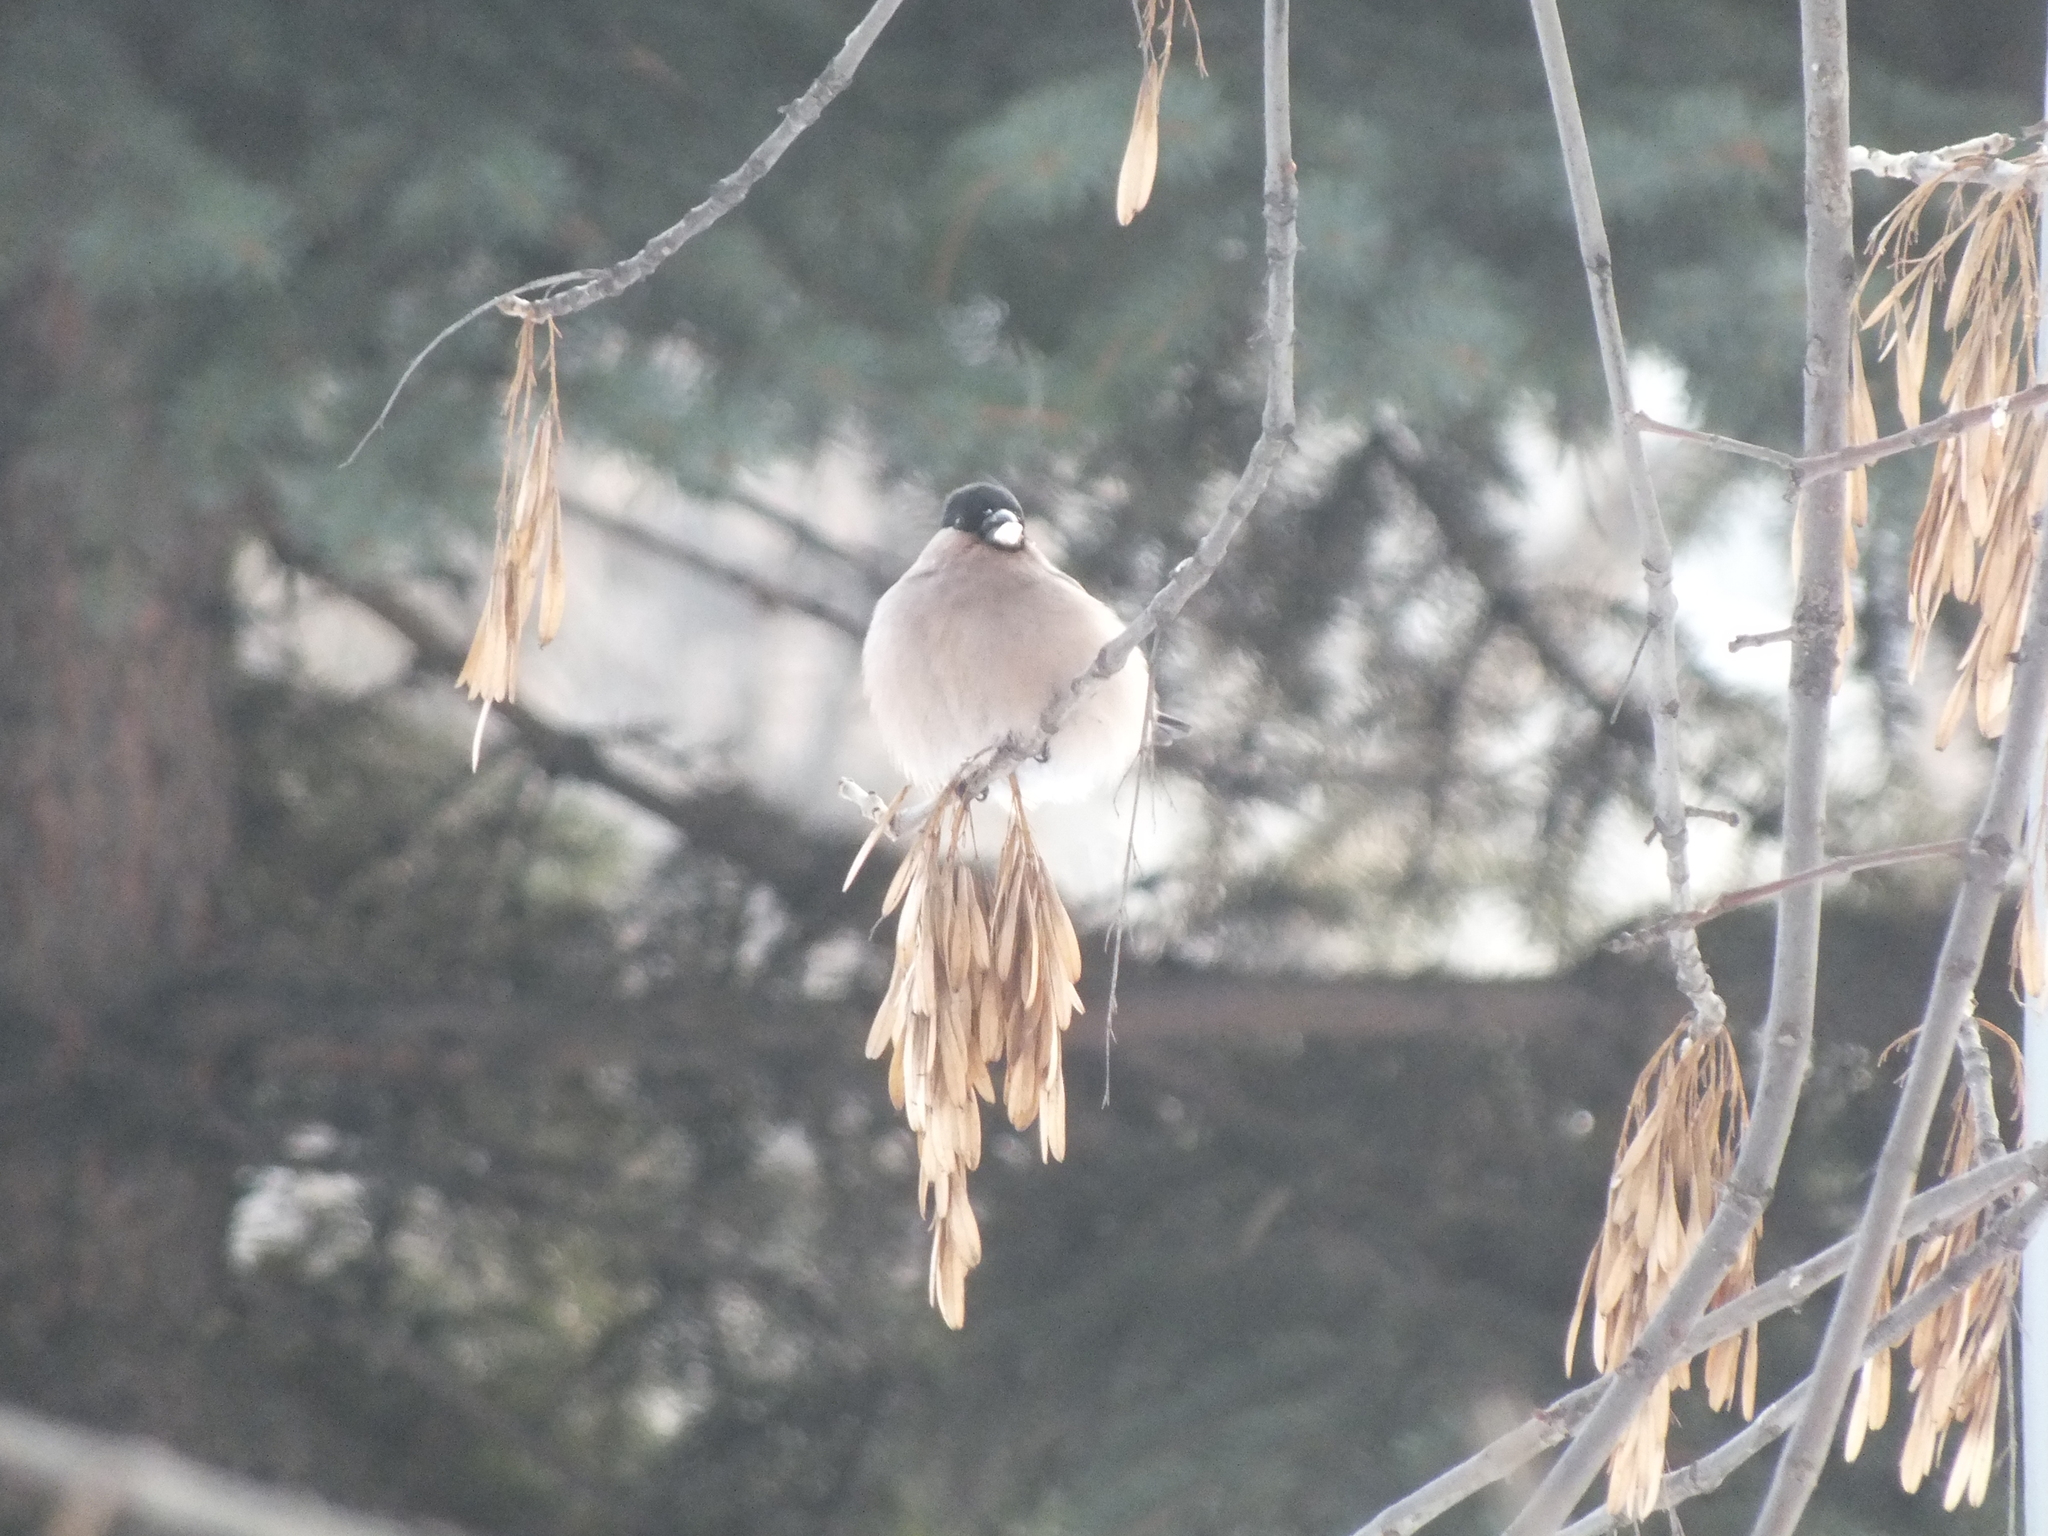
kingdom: Animalia
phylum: Chordata
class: Aves
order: Passeriformes
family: Fringillidae
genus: Pyrrhula
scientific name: Pyrrhula pyrrhula
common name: Eurasian bullfinch
